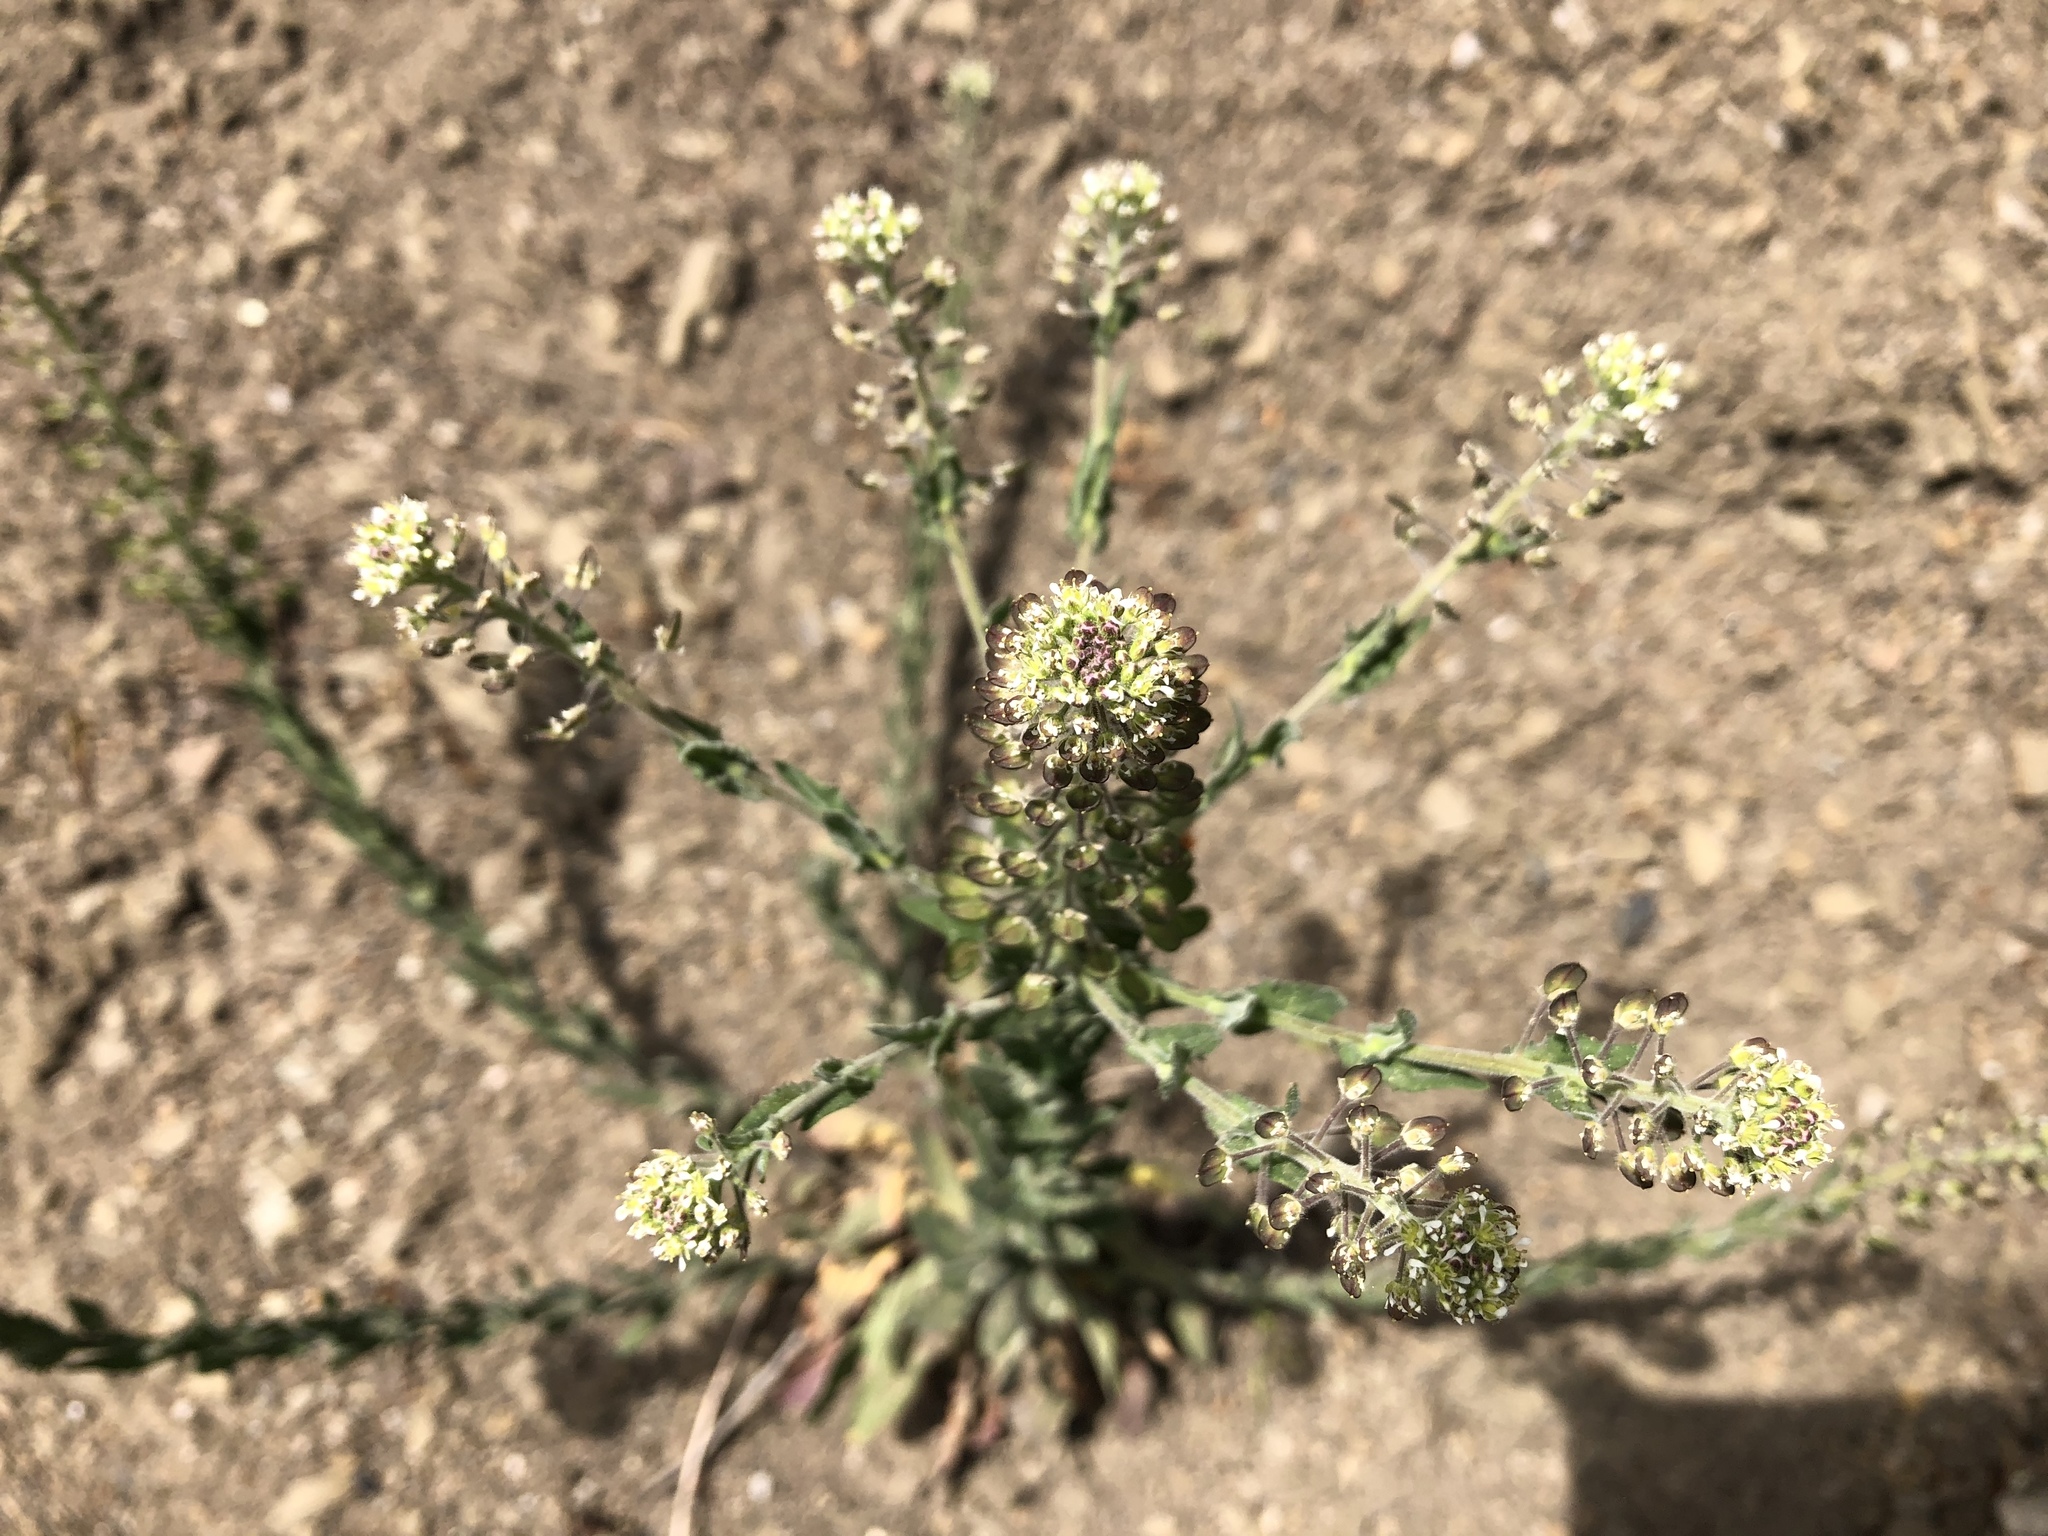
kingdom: Plantae
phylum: Tracheophyta
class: Magnoliopsida
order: Brassicales
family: Brassicaceae
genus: Lepidium
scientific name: Lepidium campestre
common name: Field pepperwort
